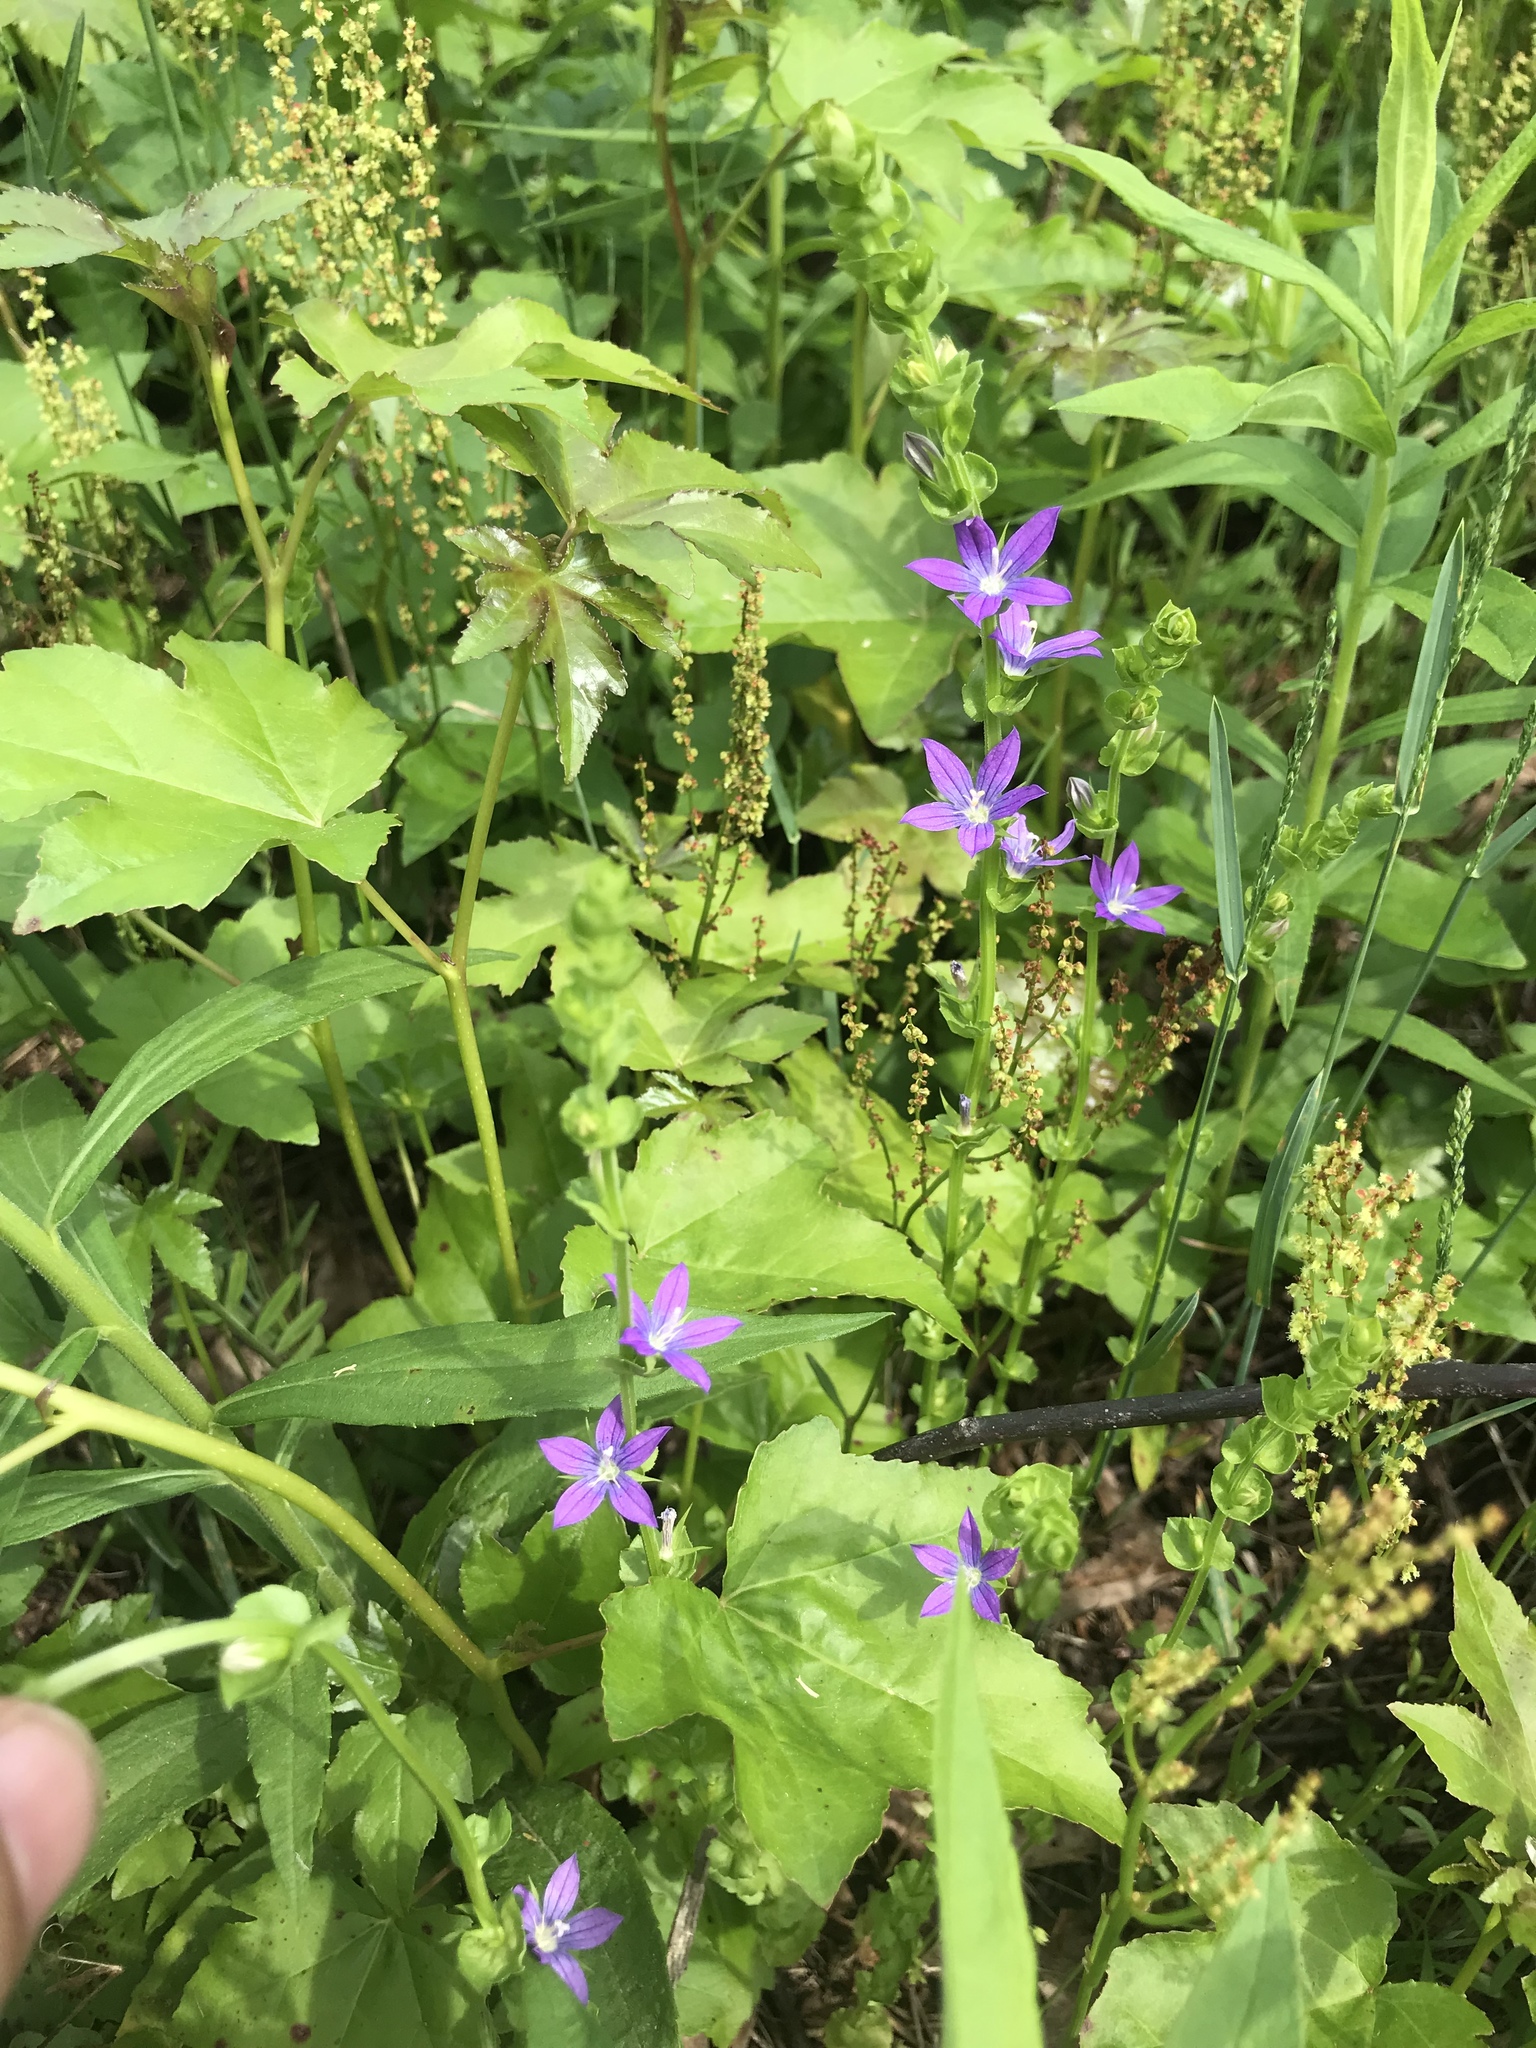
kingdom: Plantae
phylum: Tracheophyta
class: Magnoliopsida
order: Asterales
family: Campanulaceae
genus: Triodanis
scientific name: Triodanis perfoliata
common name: Clasping venus' looking-glass
